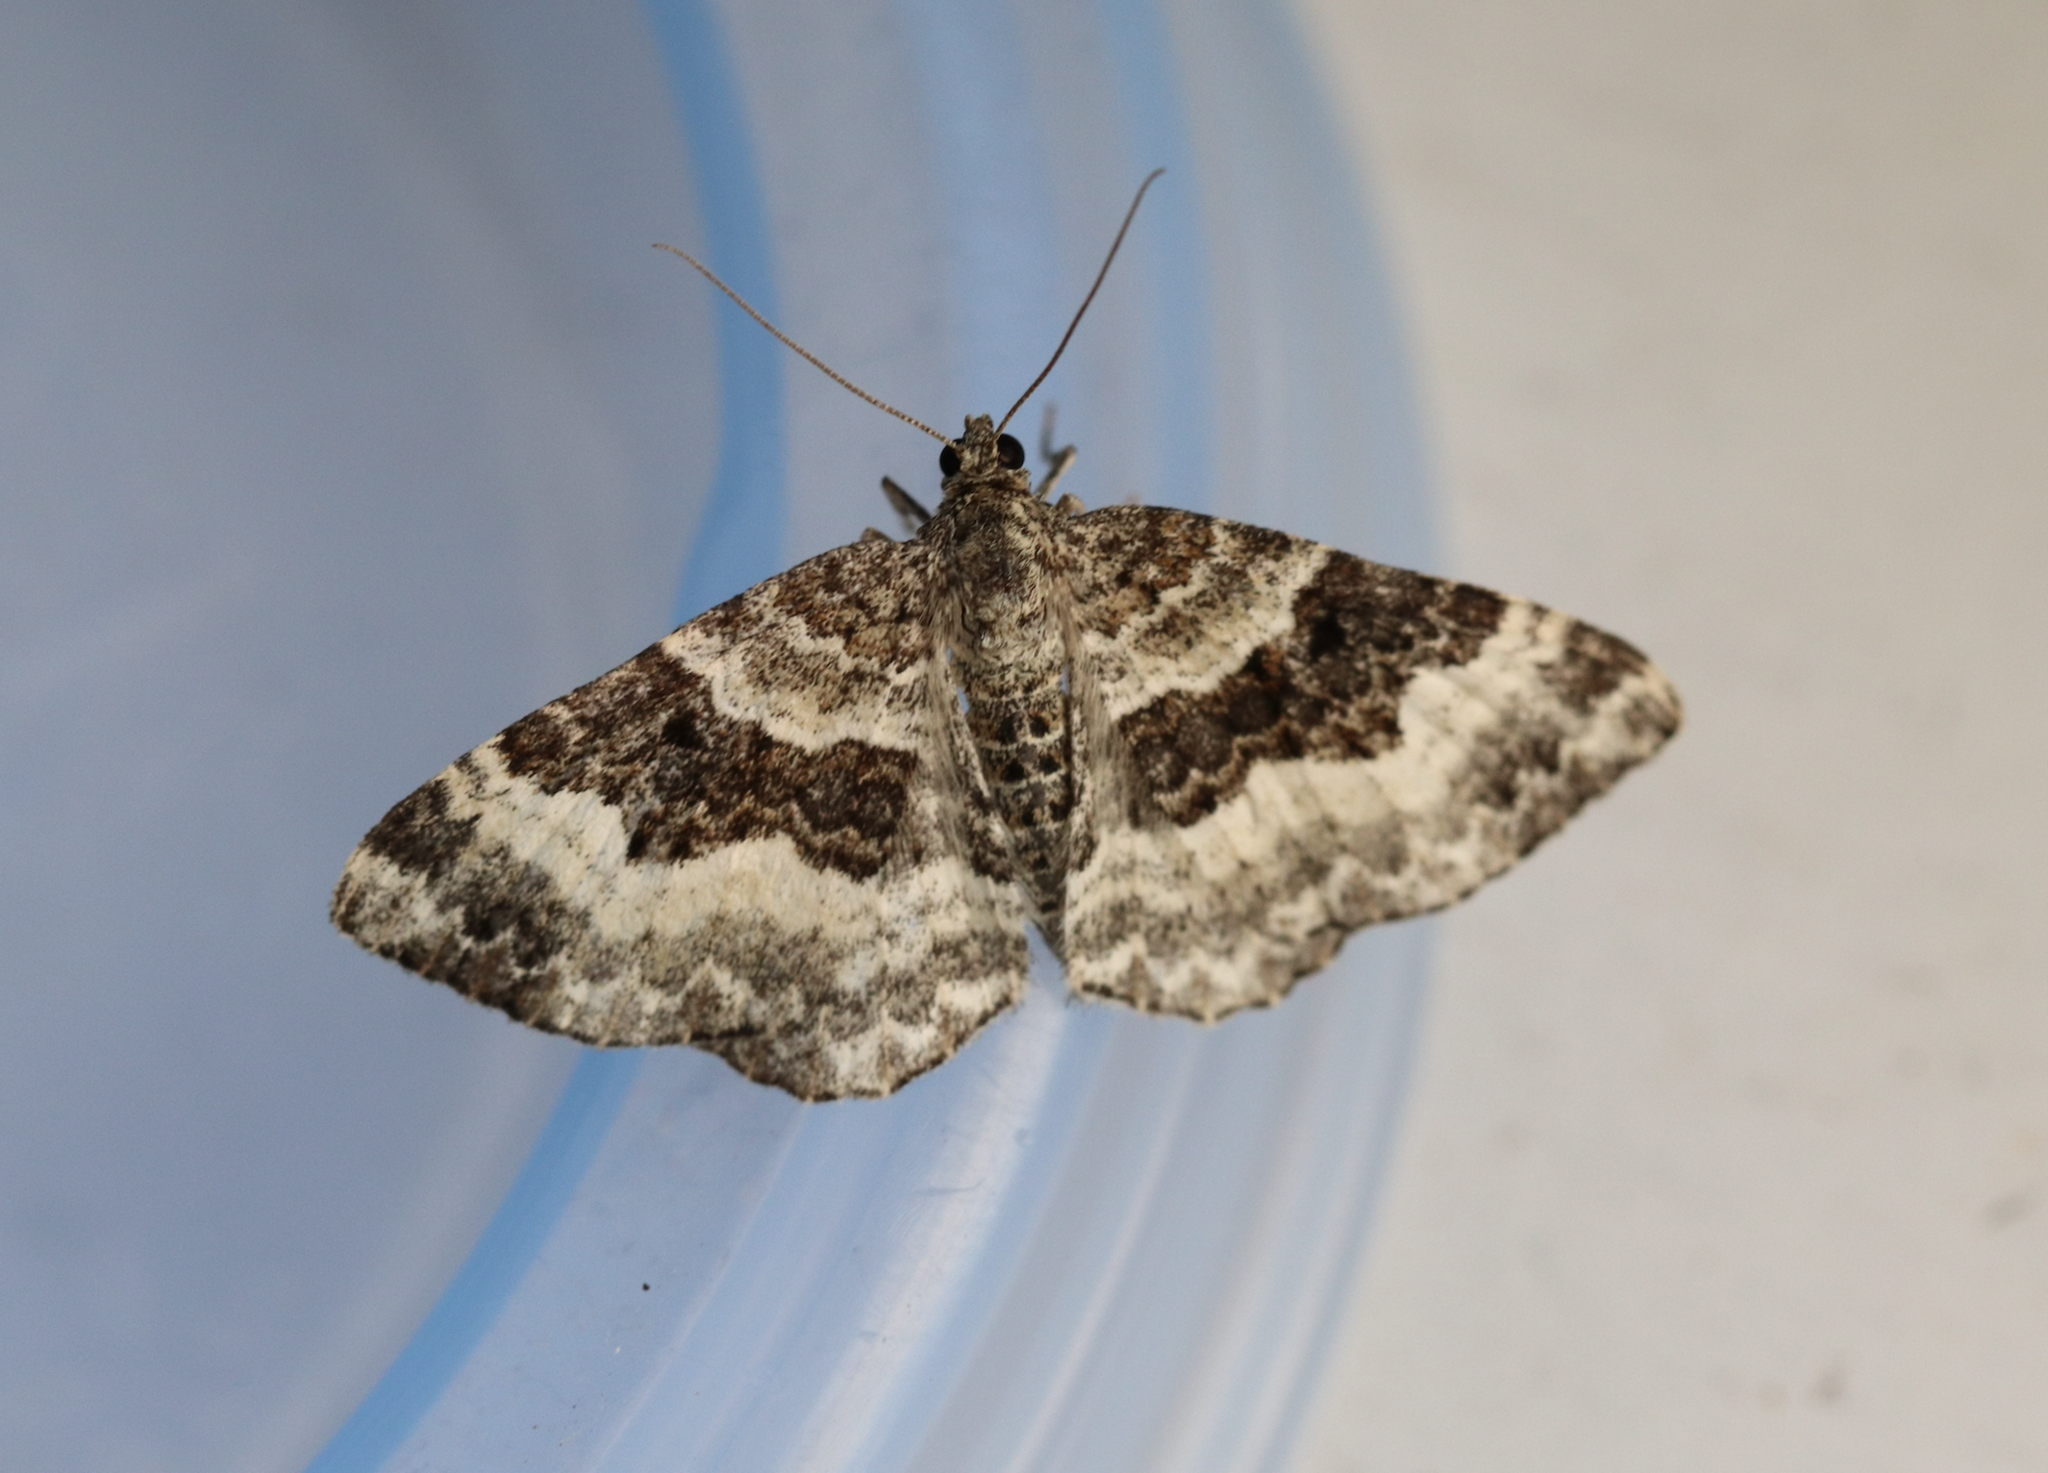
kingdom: Animalia
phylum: Arthropoda
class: Insecta
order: Lepidoptera
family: Geometridae
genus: Epirrhoe
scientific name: Epirrhoe alternata
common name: Common carpet
